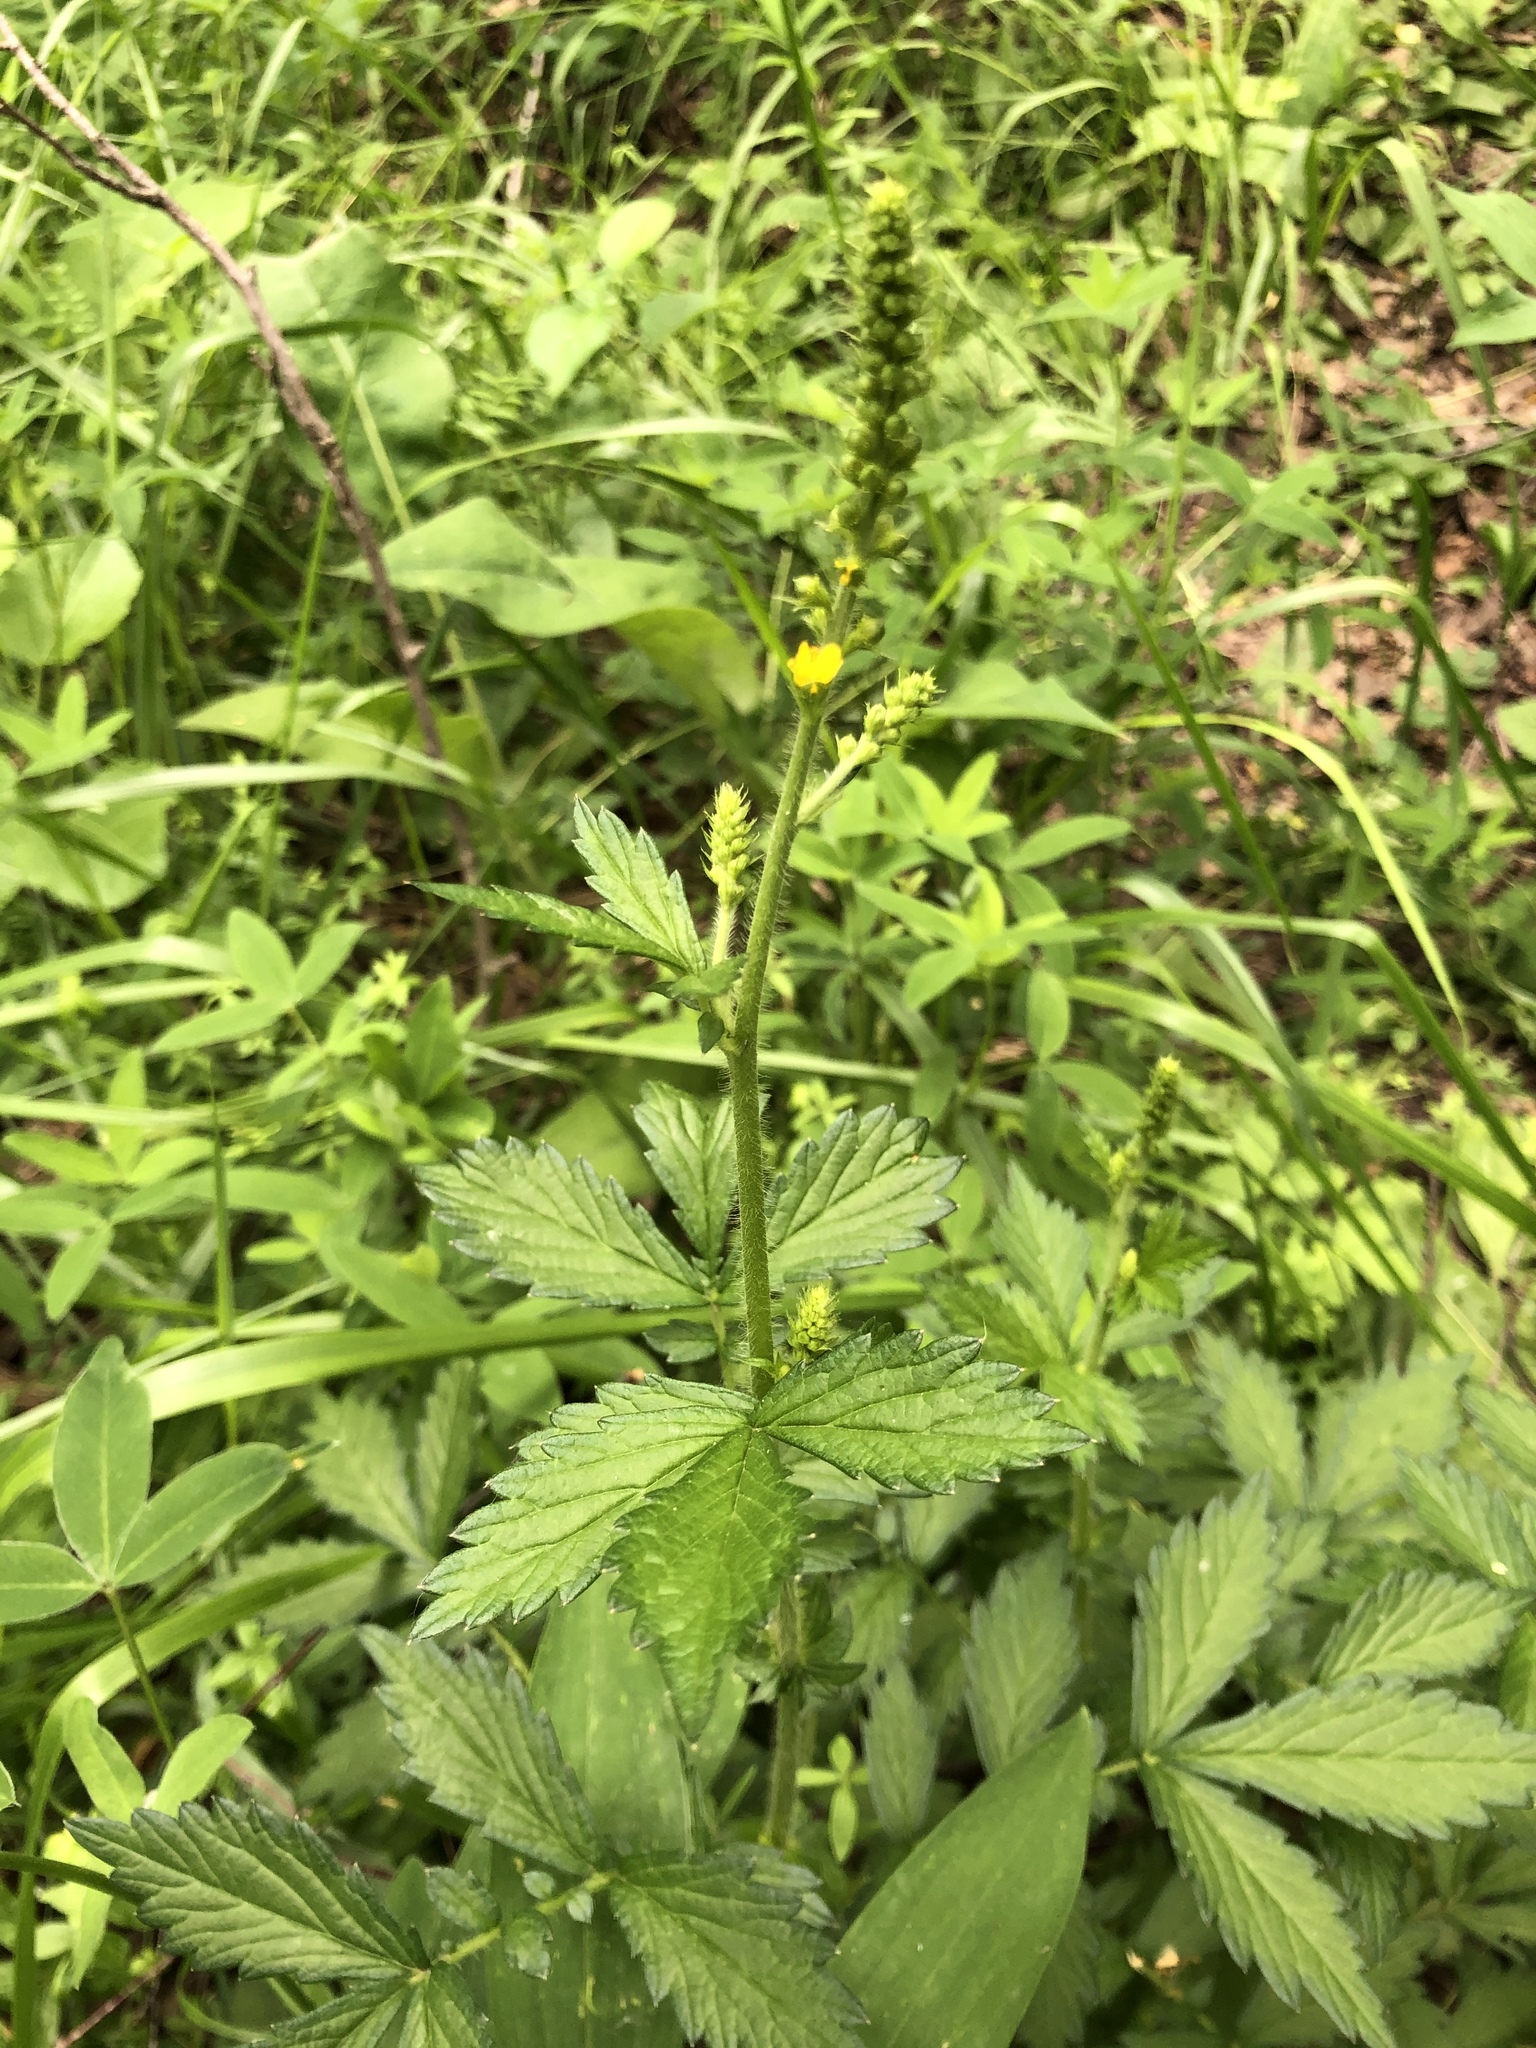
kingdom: Plantae
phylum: Tracheophyta
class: Magnoliopsida
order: Rosales
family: Rosaceae
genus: Agrimonia
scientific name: Agrimonia pilosa
